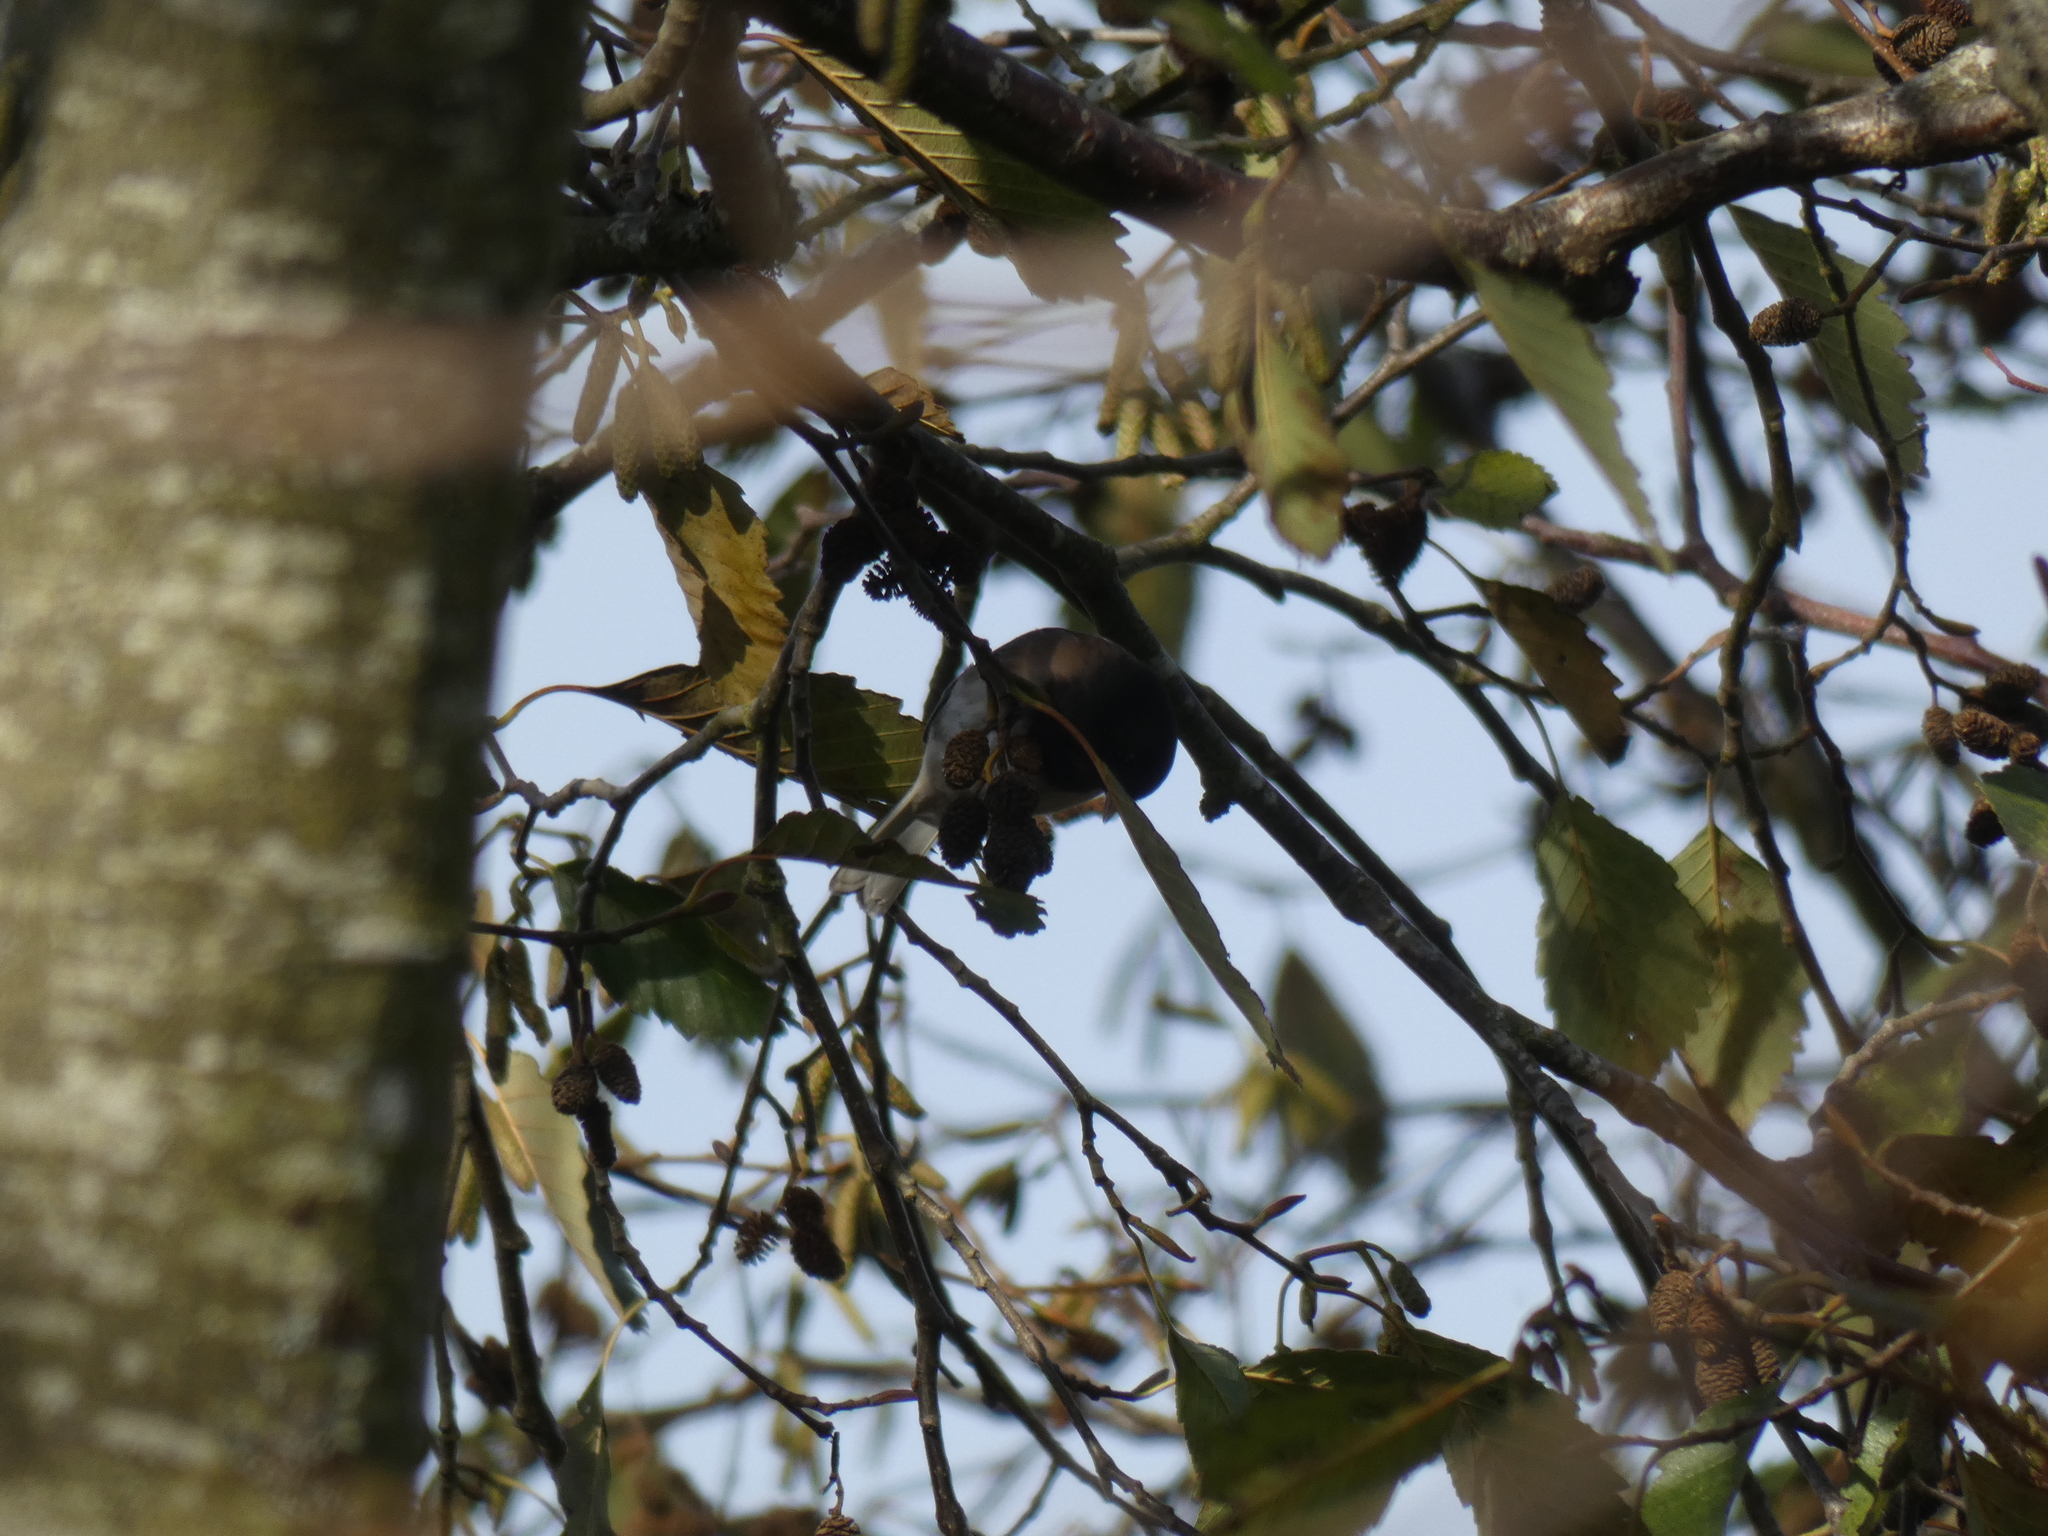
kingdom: Animalia
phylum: Chordata
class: Aves
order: Passeriformes
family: Passerellidae
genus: Junco
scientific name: Junco hyemalis
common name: Dark-eyed junco
